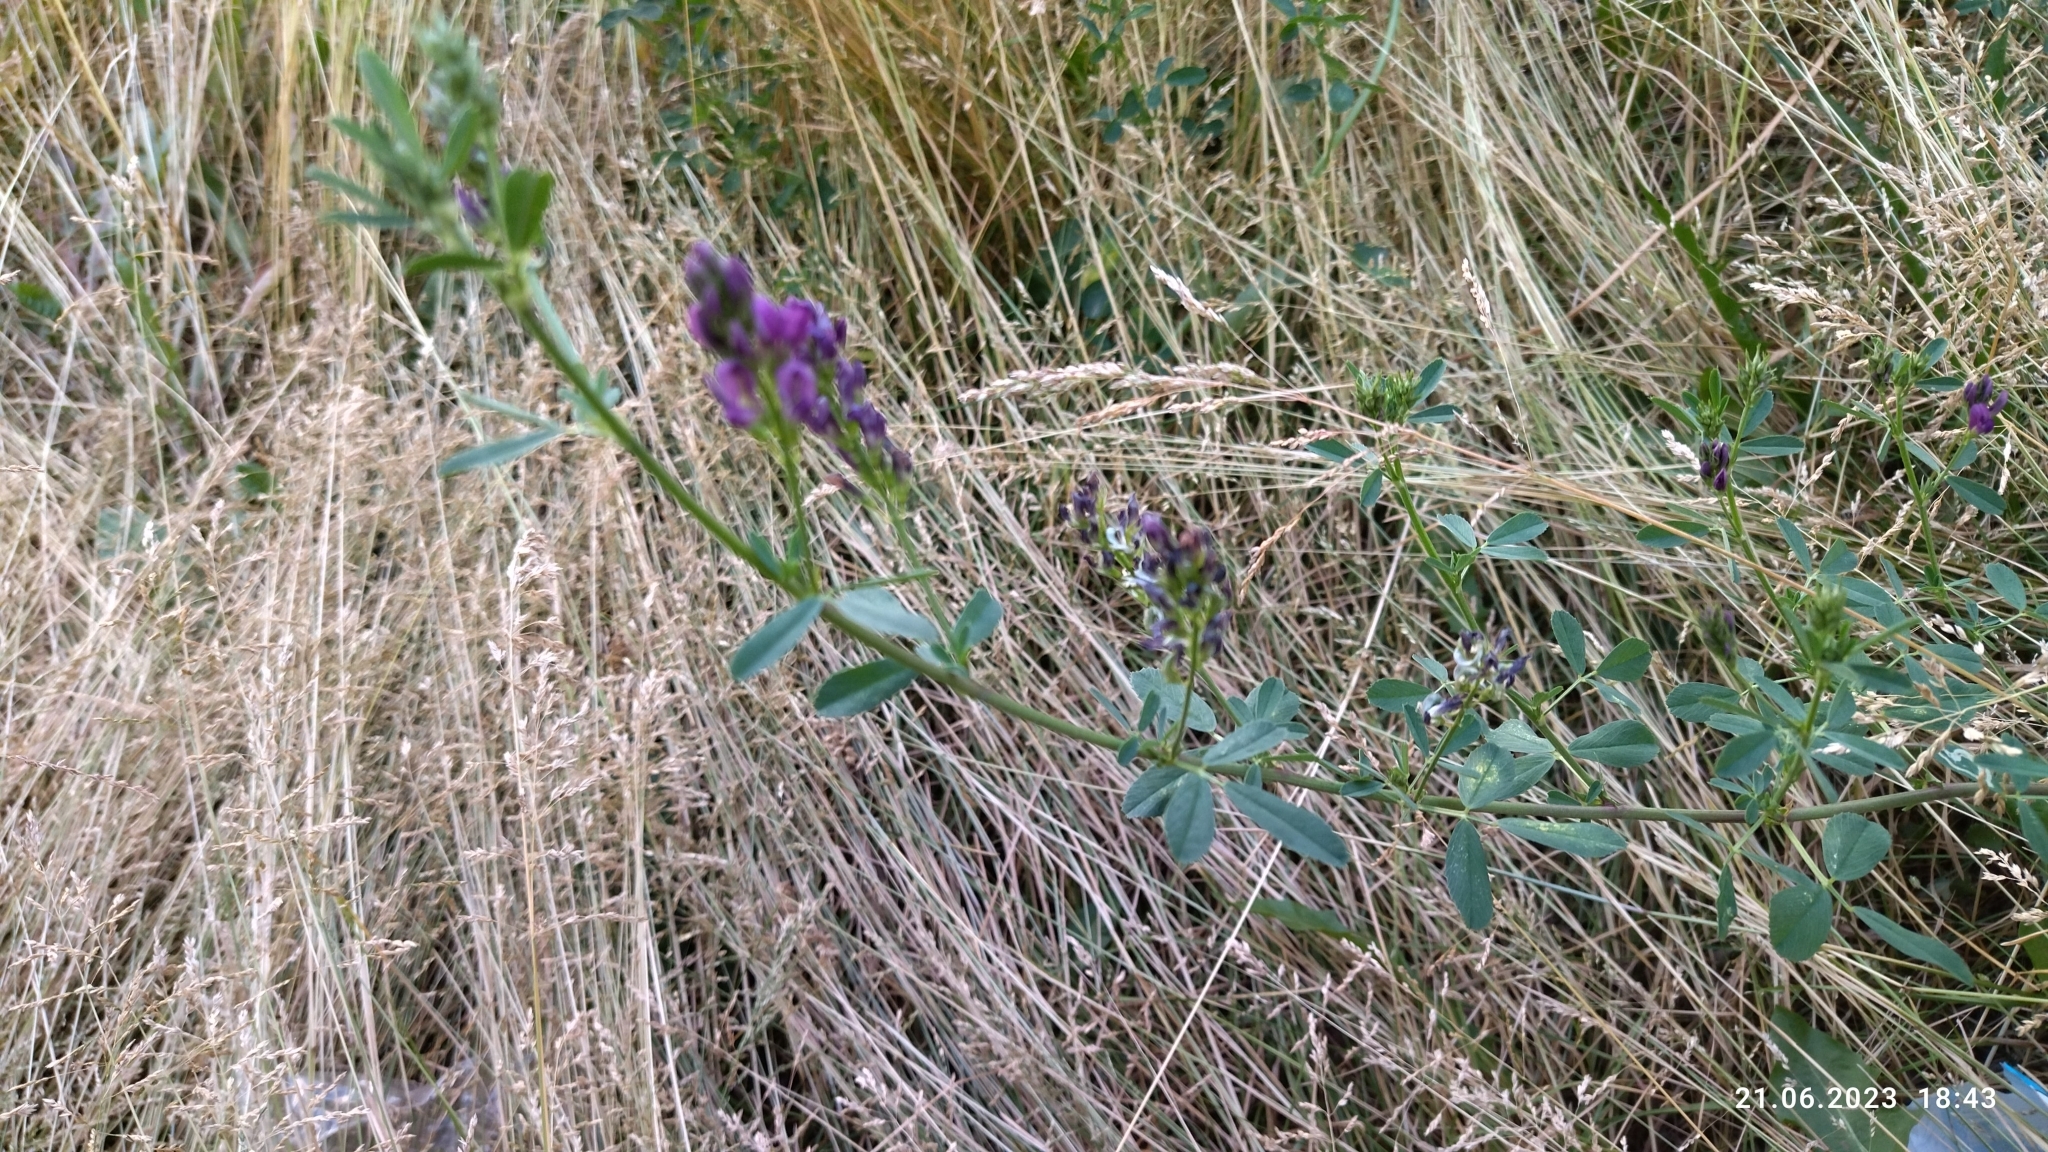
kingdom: Plantae
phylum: Tracheophyta
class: Magnoliopsida
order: Fabales
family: Fabaceae
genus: Medicago
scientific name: Medicago varia
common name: Sand lucerne
